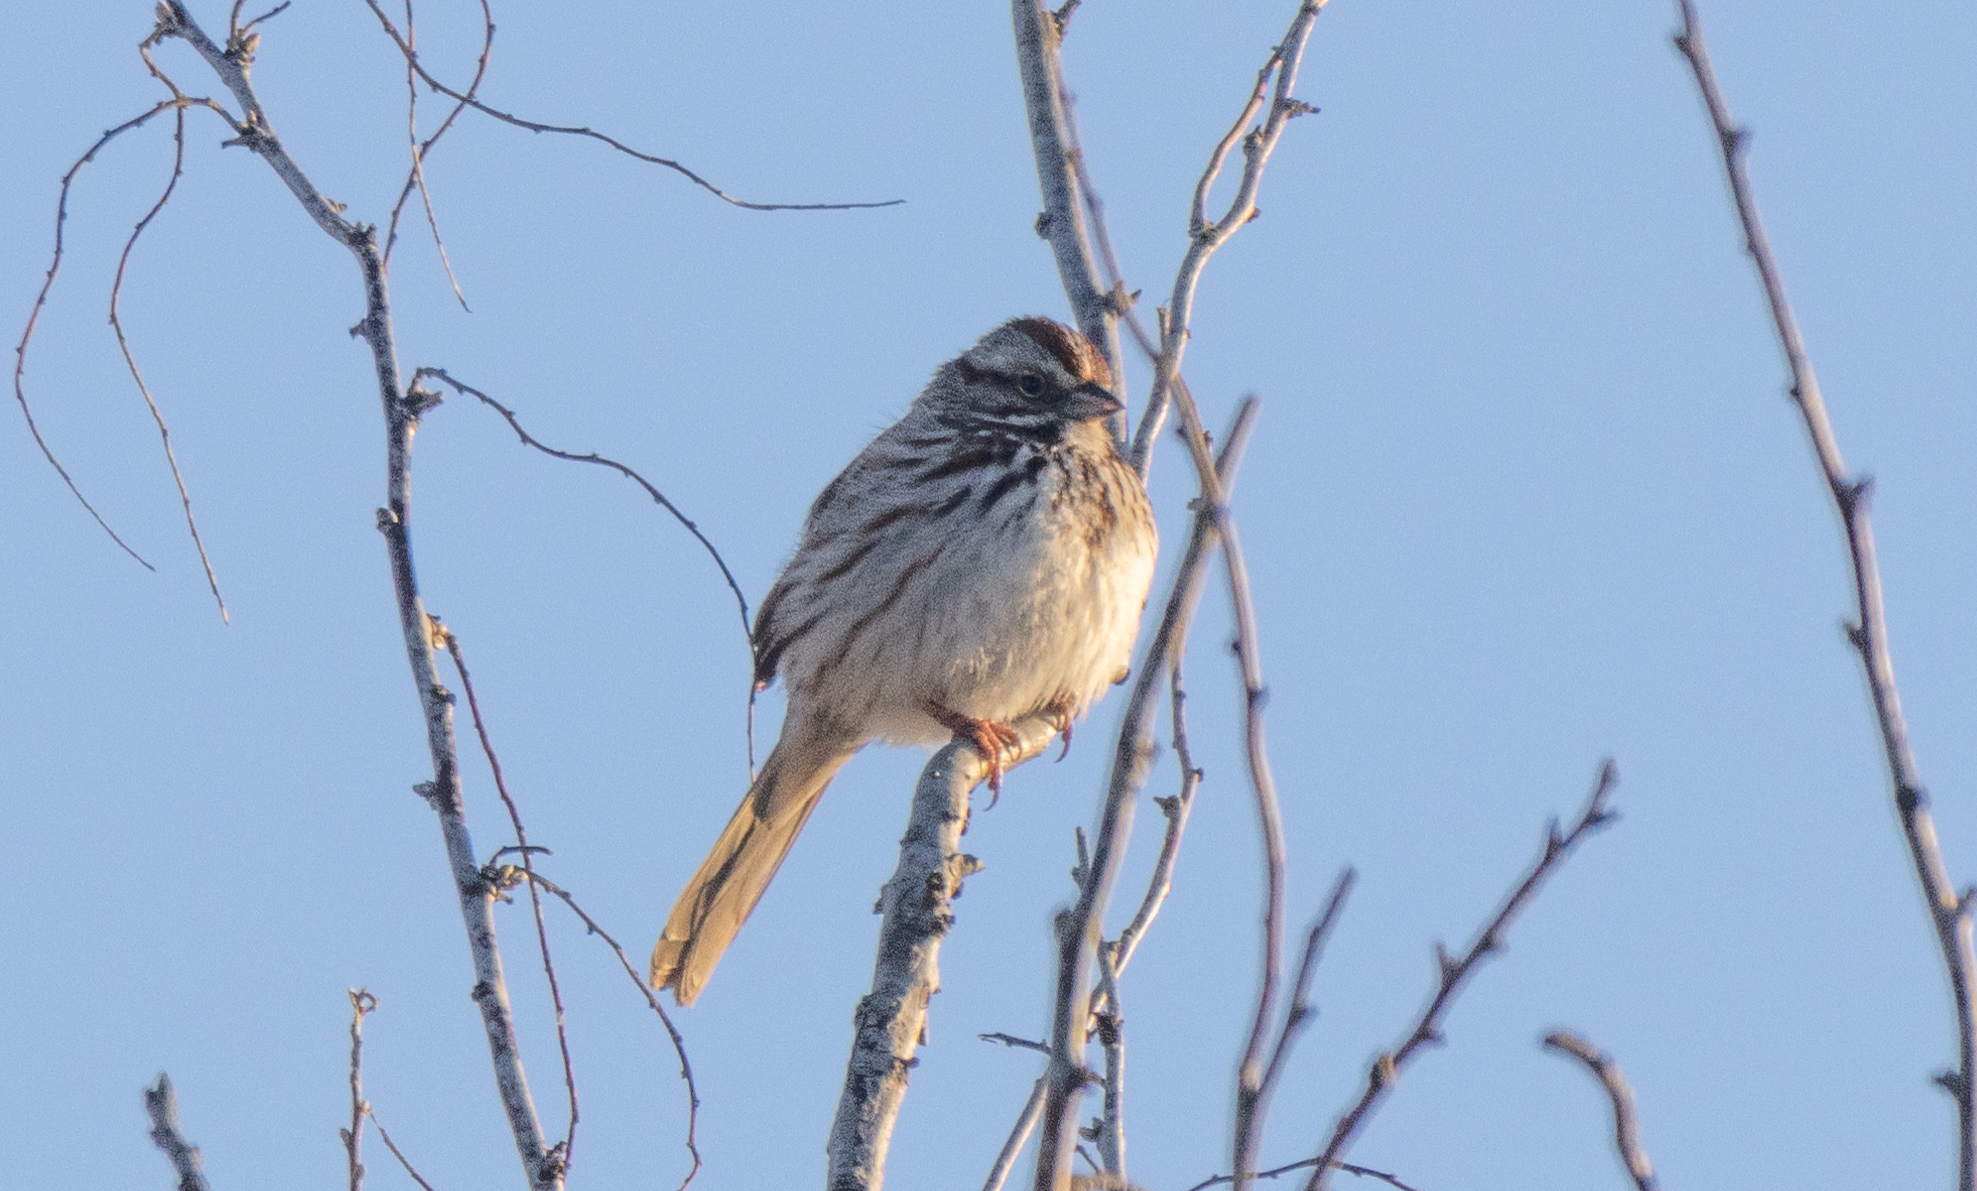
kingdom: Animalia
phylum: Chordata
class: Aves
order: Passeriformes
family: Passerellidae
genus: Melospiza
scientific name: Melospiza melodia
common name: Song sparrow
